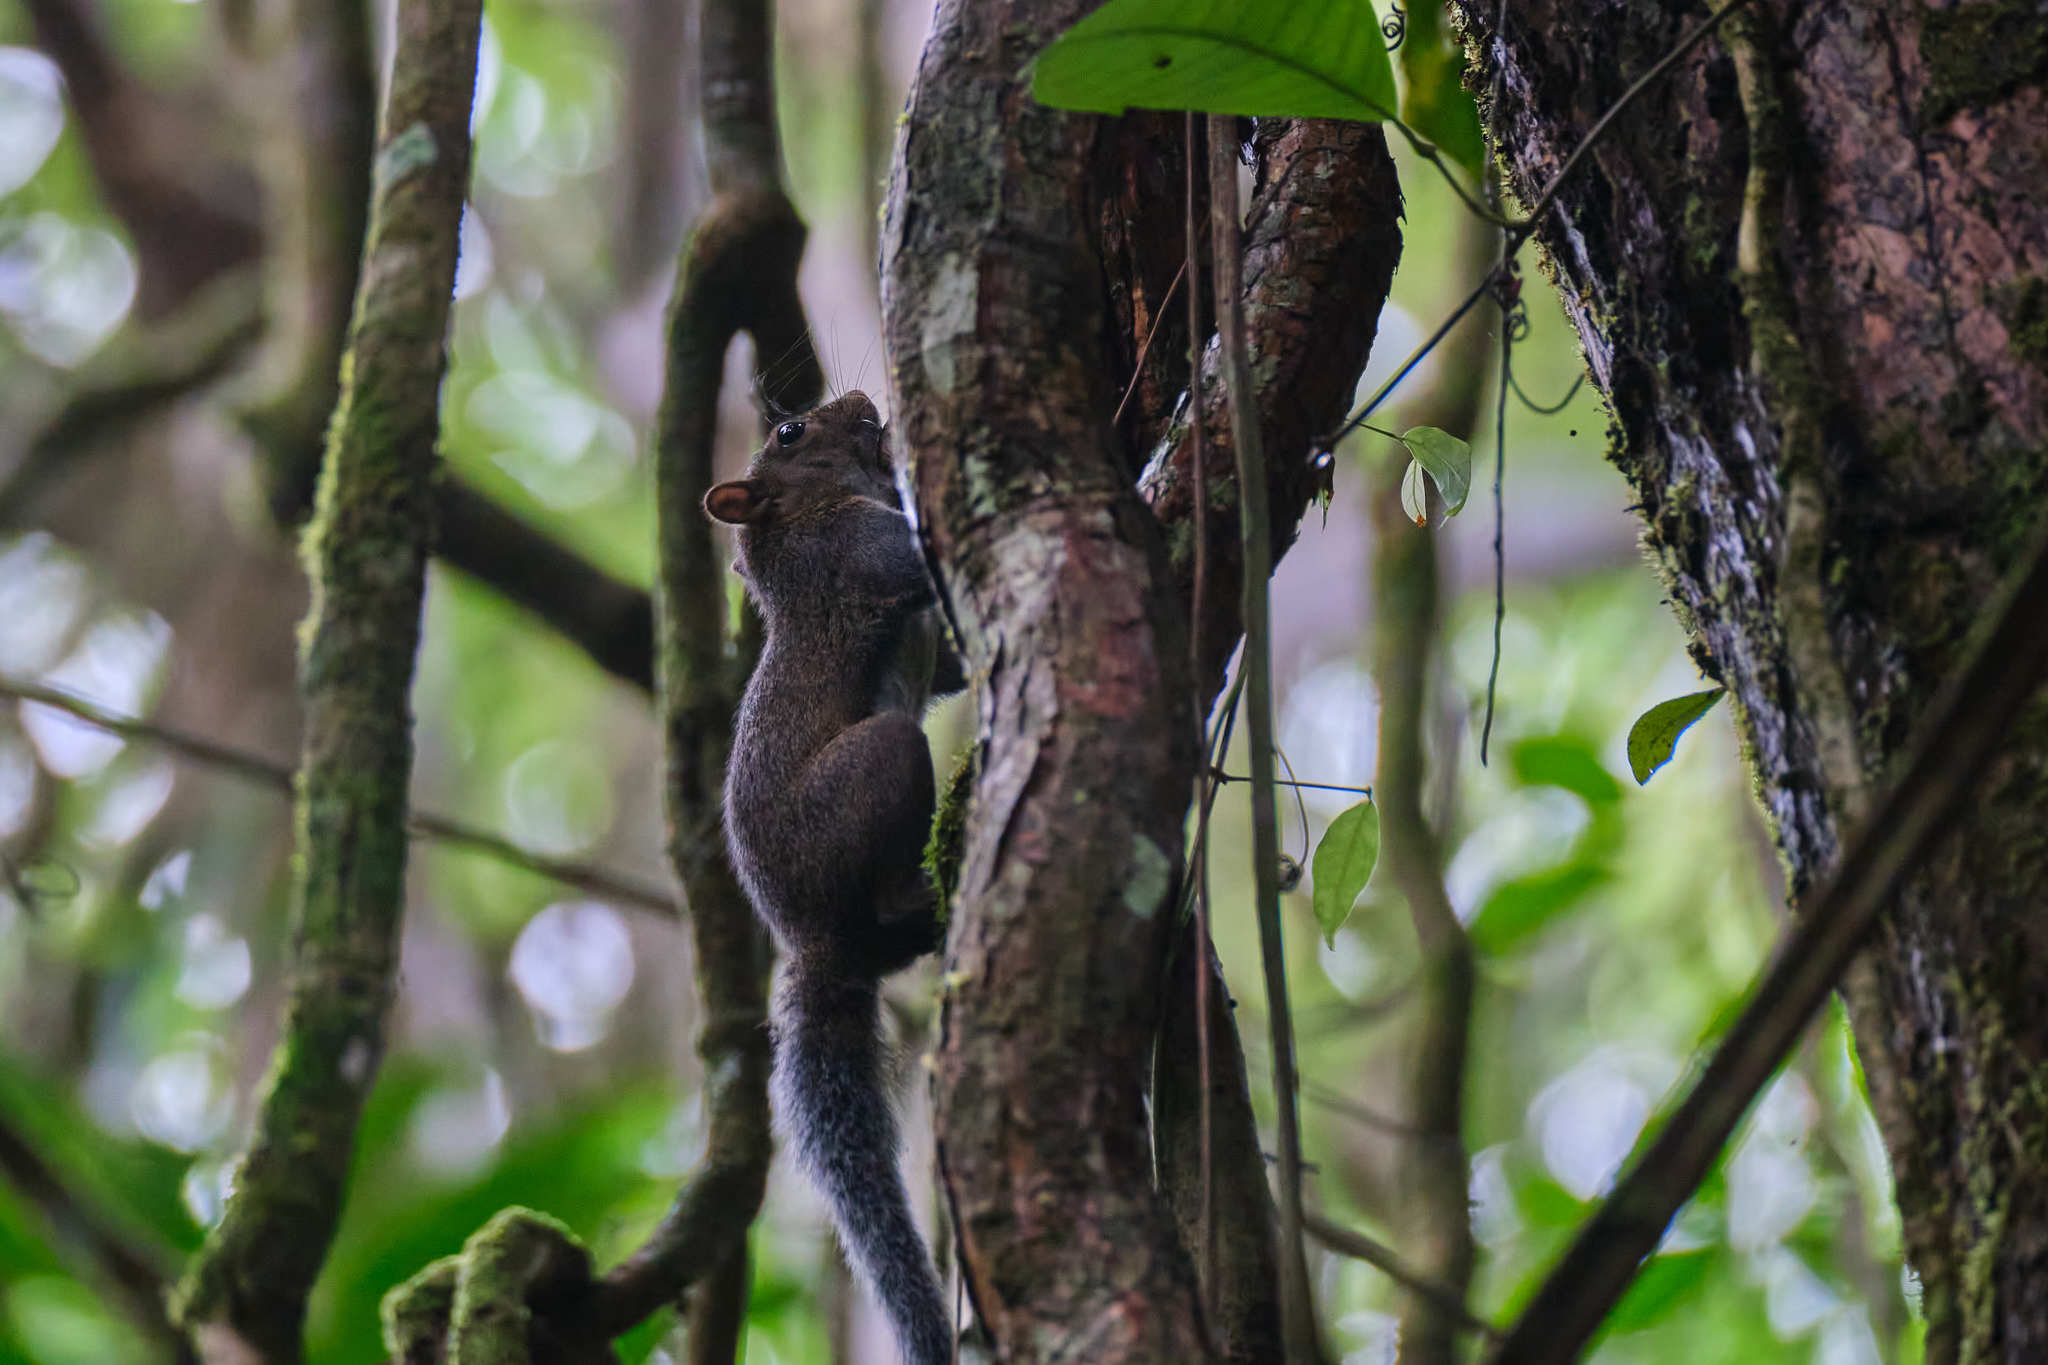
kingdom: Animalia
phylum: Chordata
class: Mammalia
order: Rodentia
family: Sciuridae
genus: Sciurus
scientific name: Sciurus deppei
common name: Deppe's squirrel
